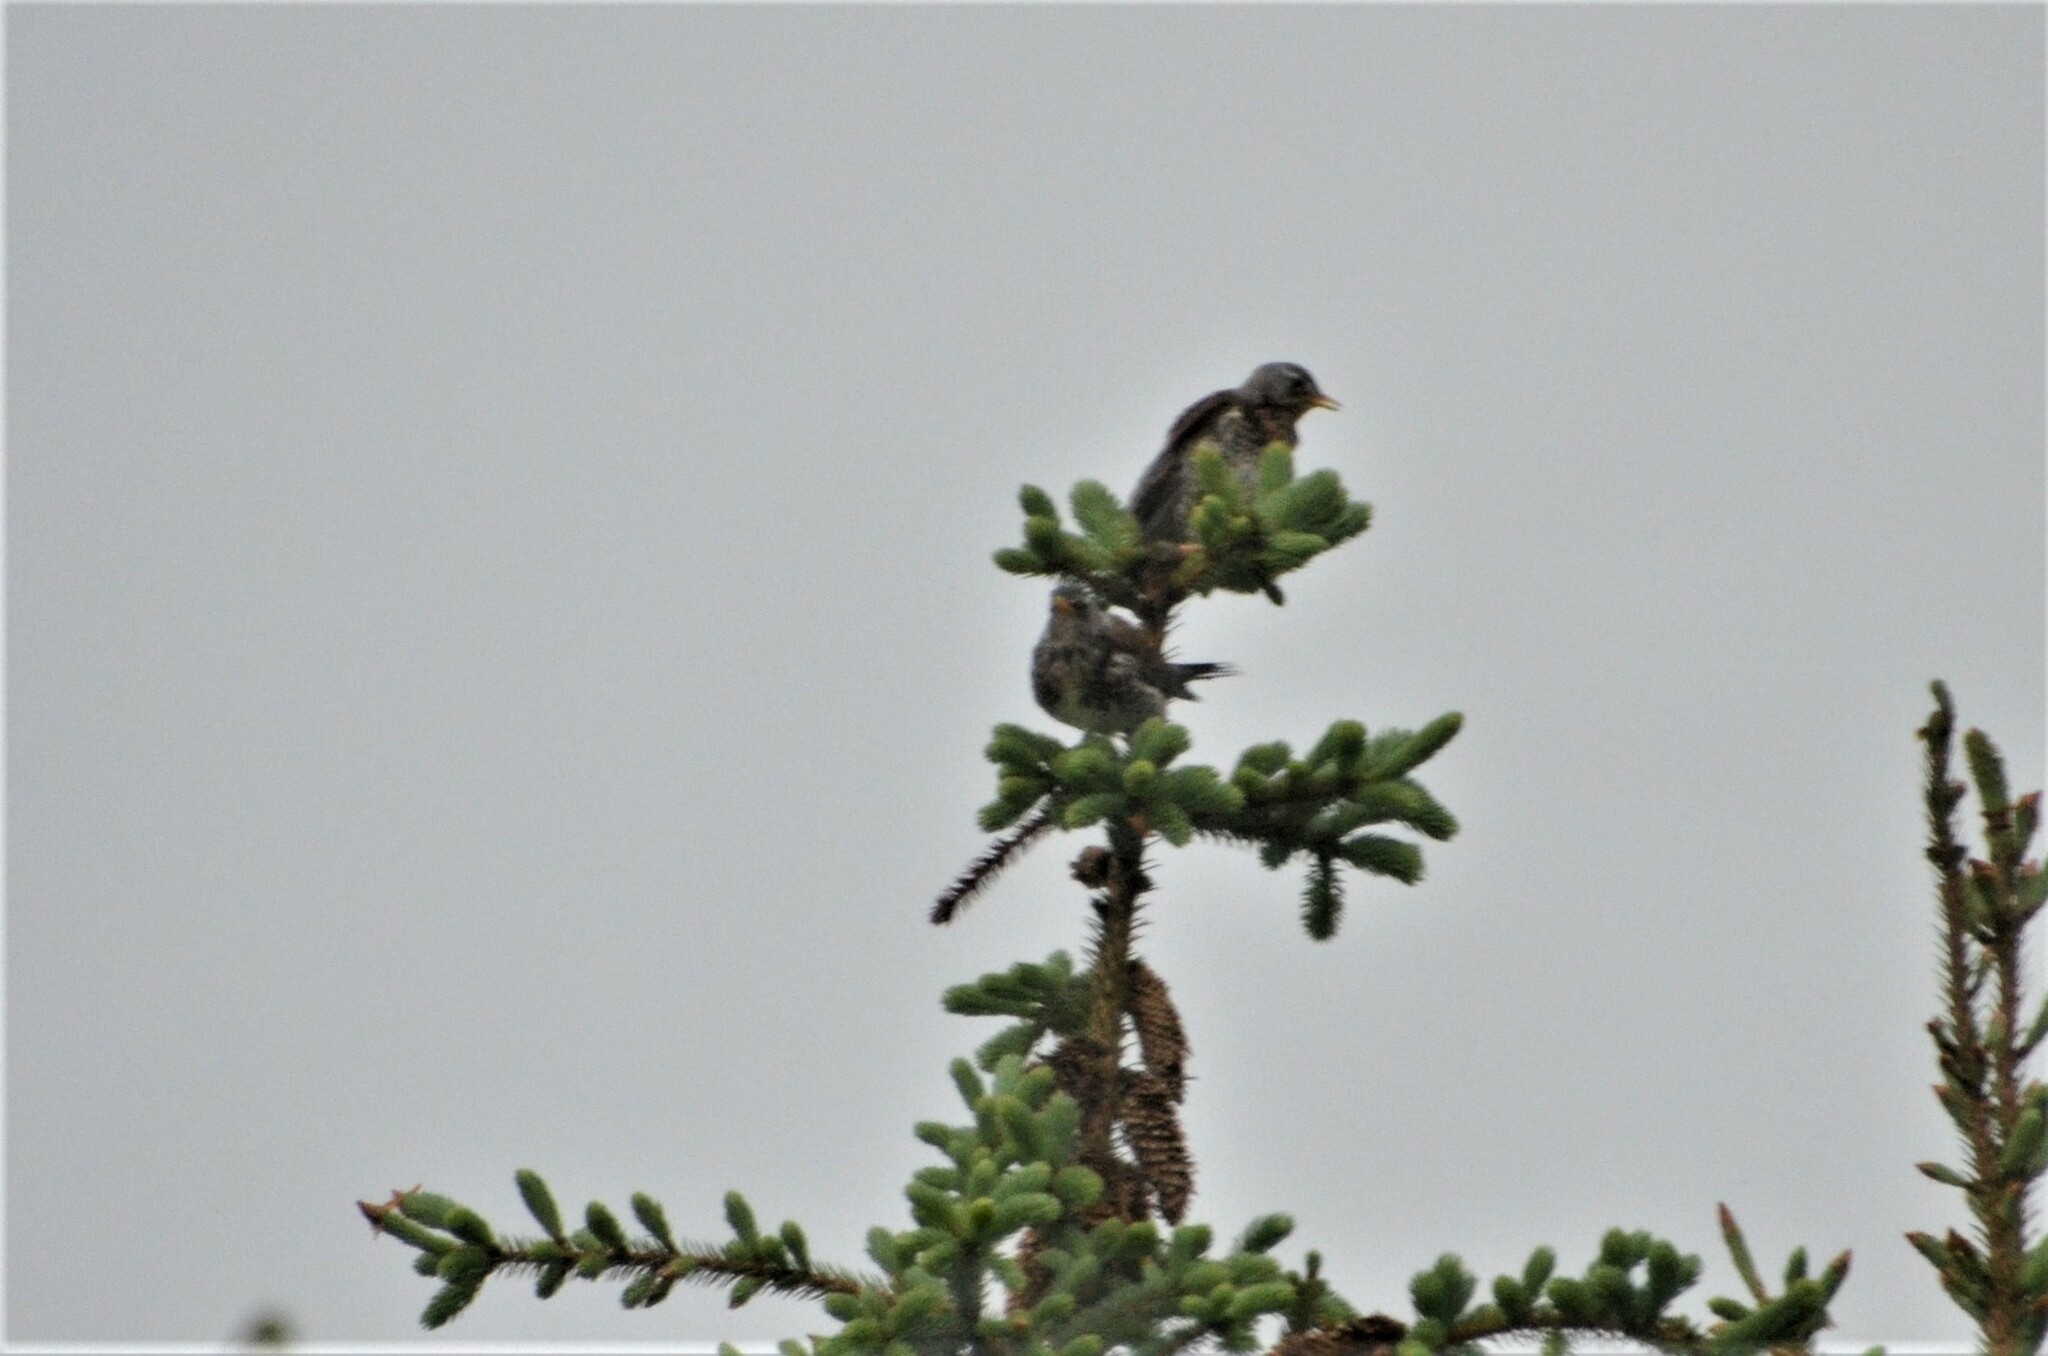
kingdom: Animalia
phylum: Chordata
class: Aves
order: Passeriformes
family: Turdidae
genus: Turdus
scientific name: Turdus pilaris
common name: Fieldfare
